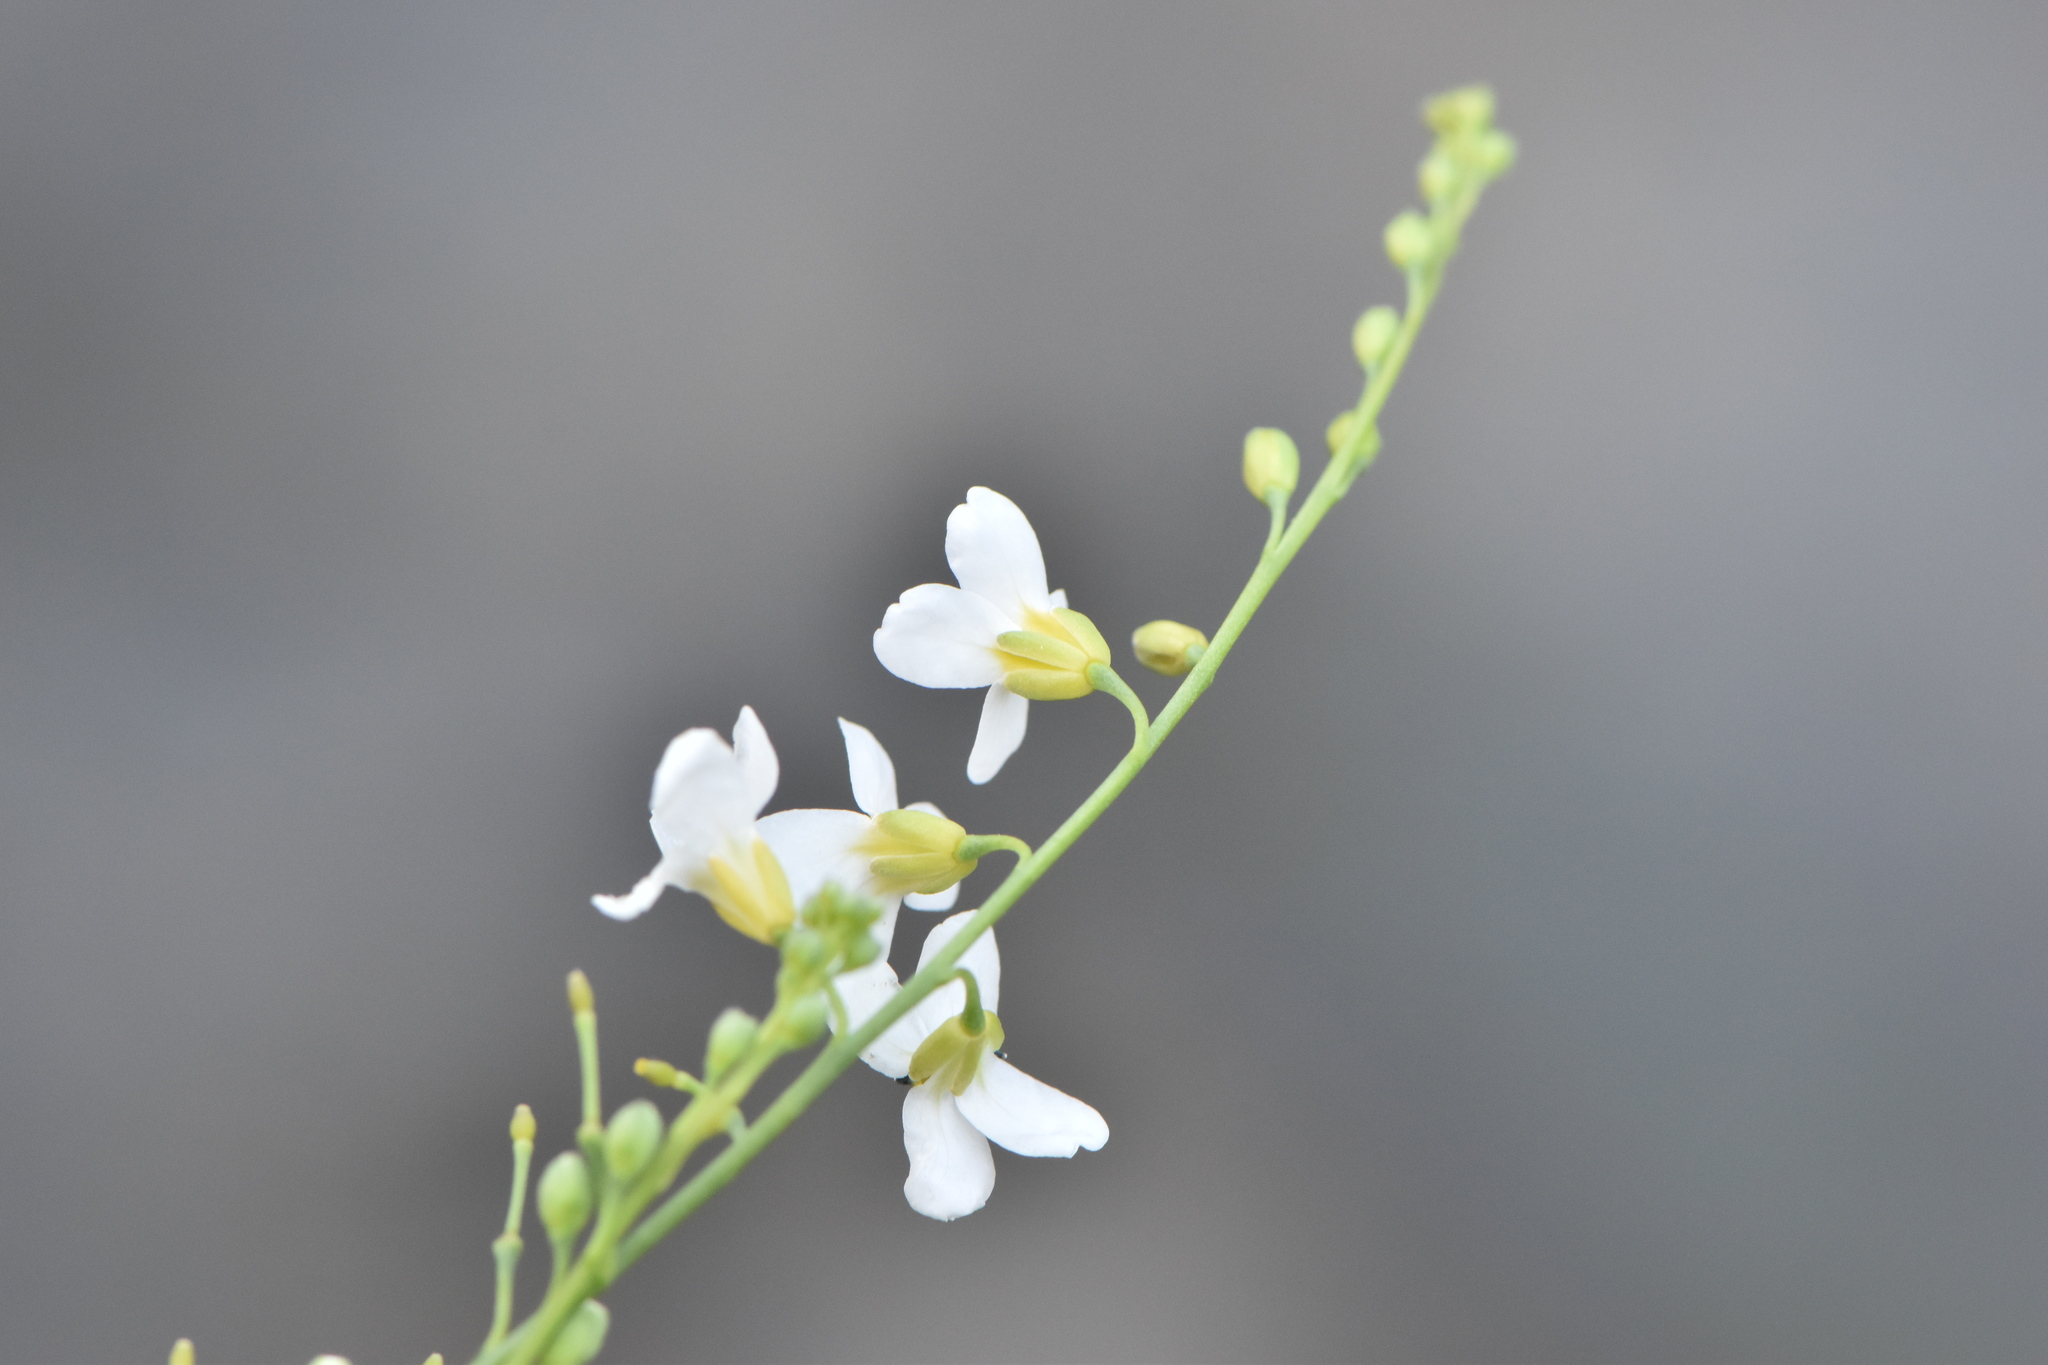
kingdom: Plantae
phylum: Tracheophyta
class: Magnoliopsida
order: Brassicales
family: Brassicaceae
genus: Crambe
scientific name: Crambe filiformis
